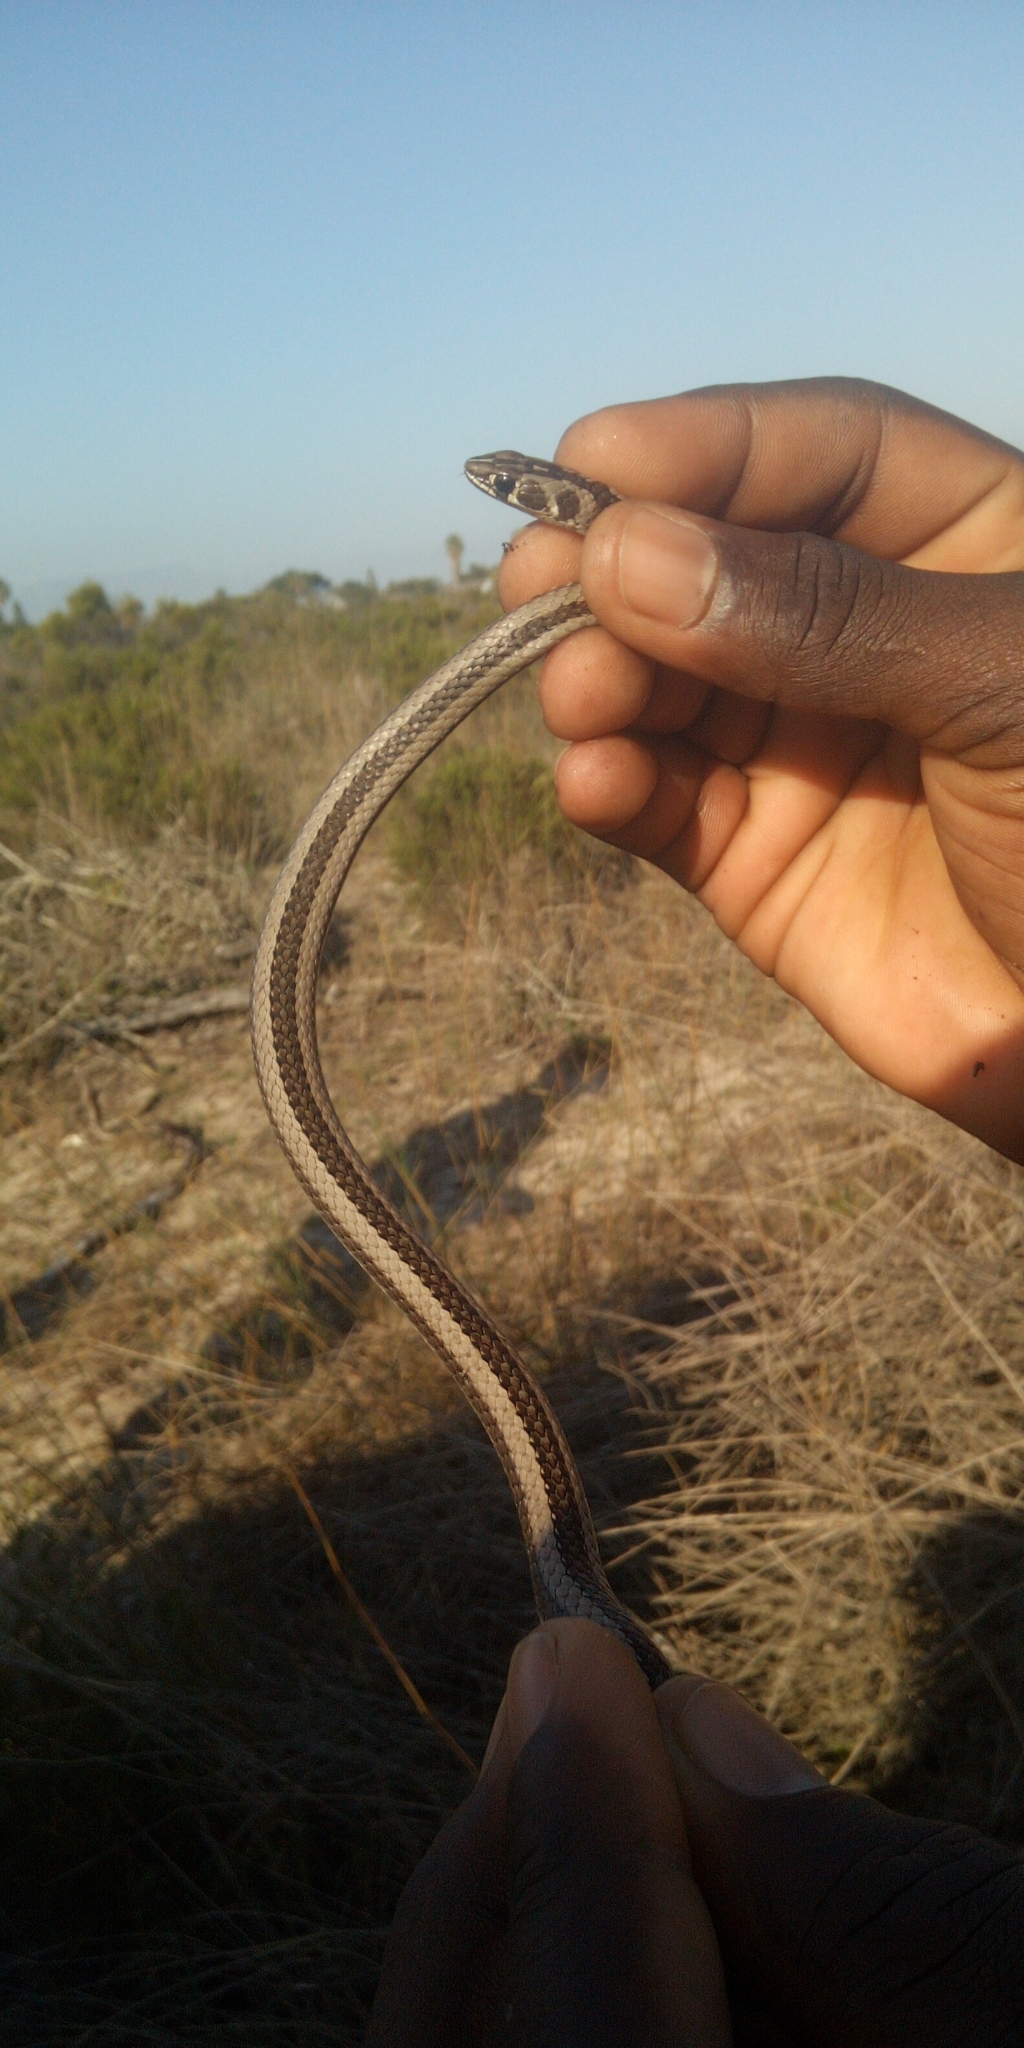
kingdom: Animalia
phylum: Chordata
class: Squamata
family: Psammophiidae
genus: Psammophis
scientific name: Psammophis crucifer
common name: Cross-marked grass snake
